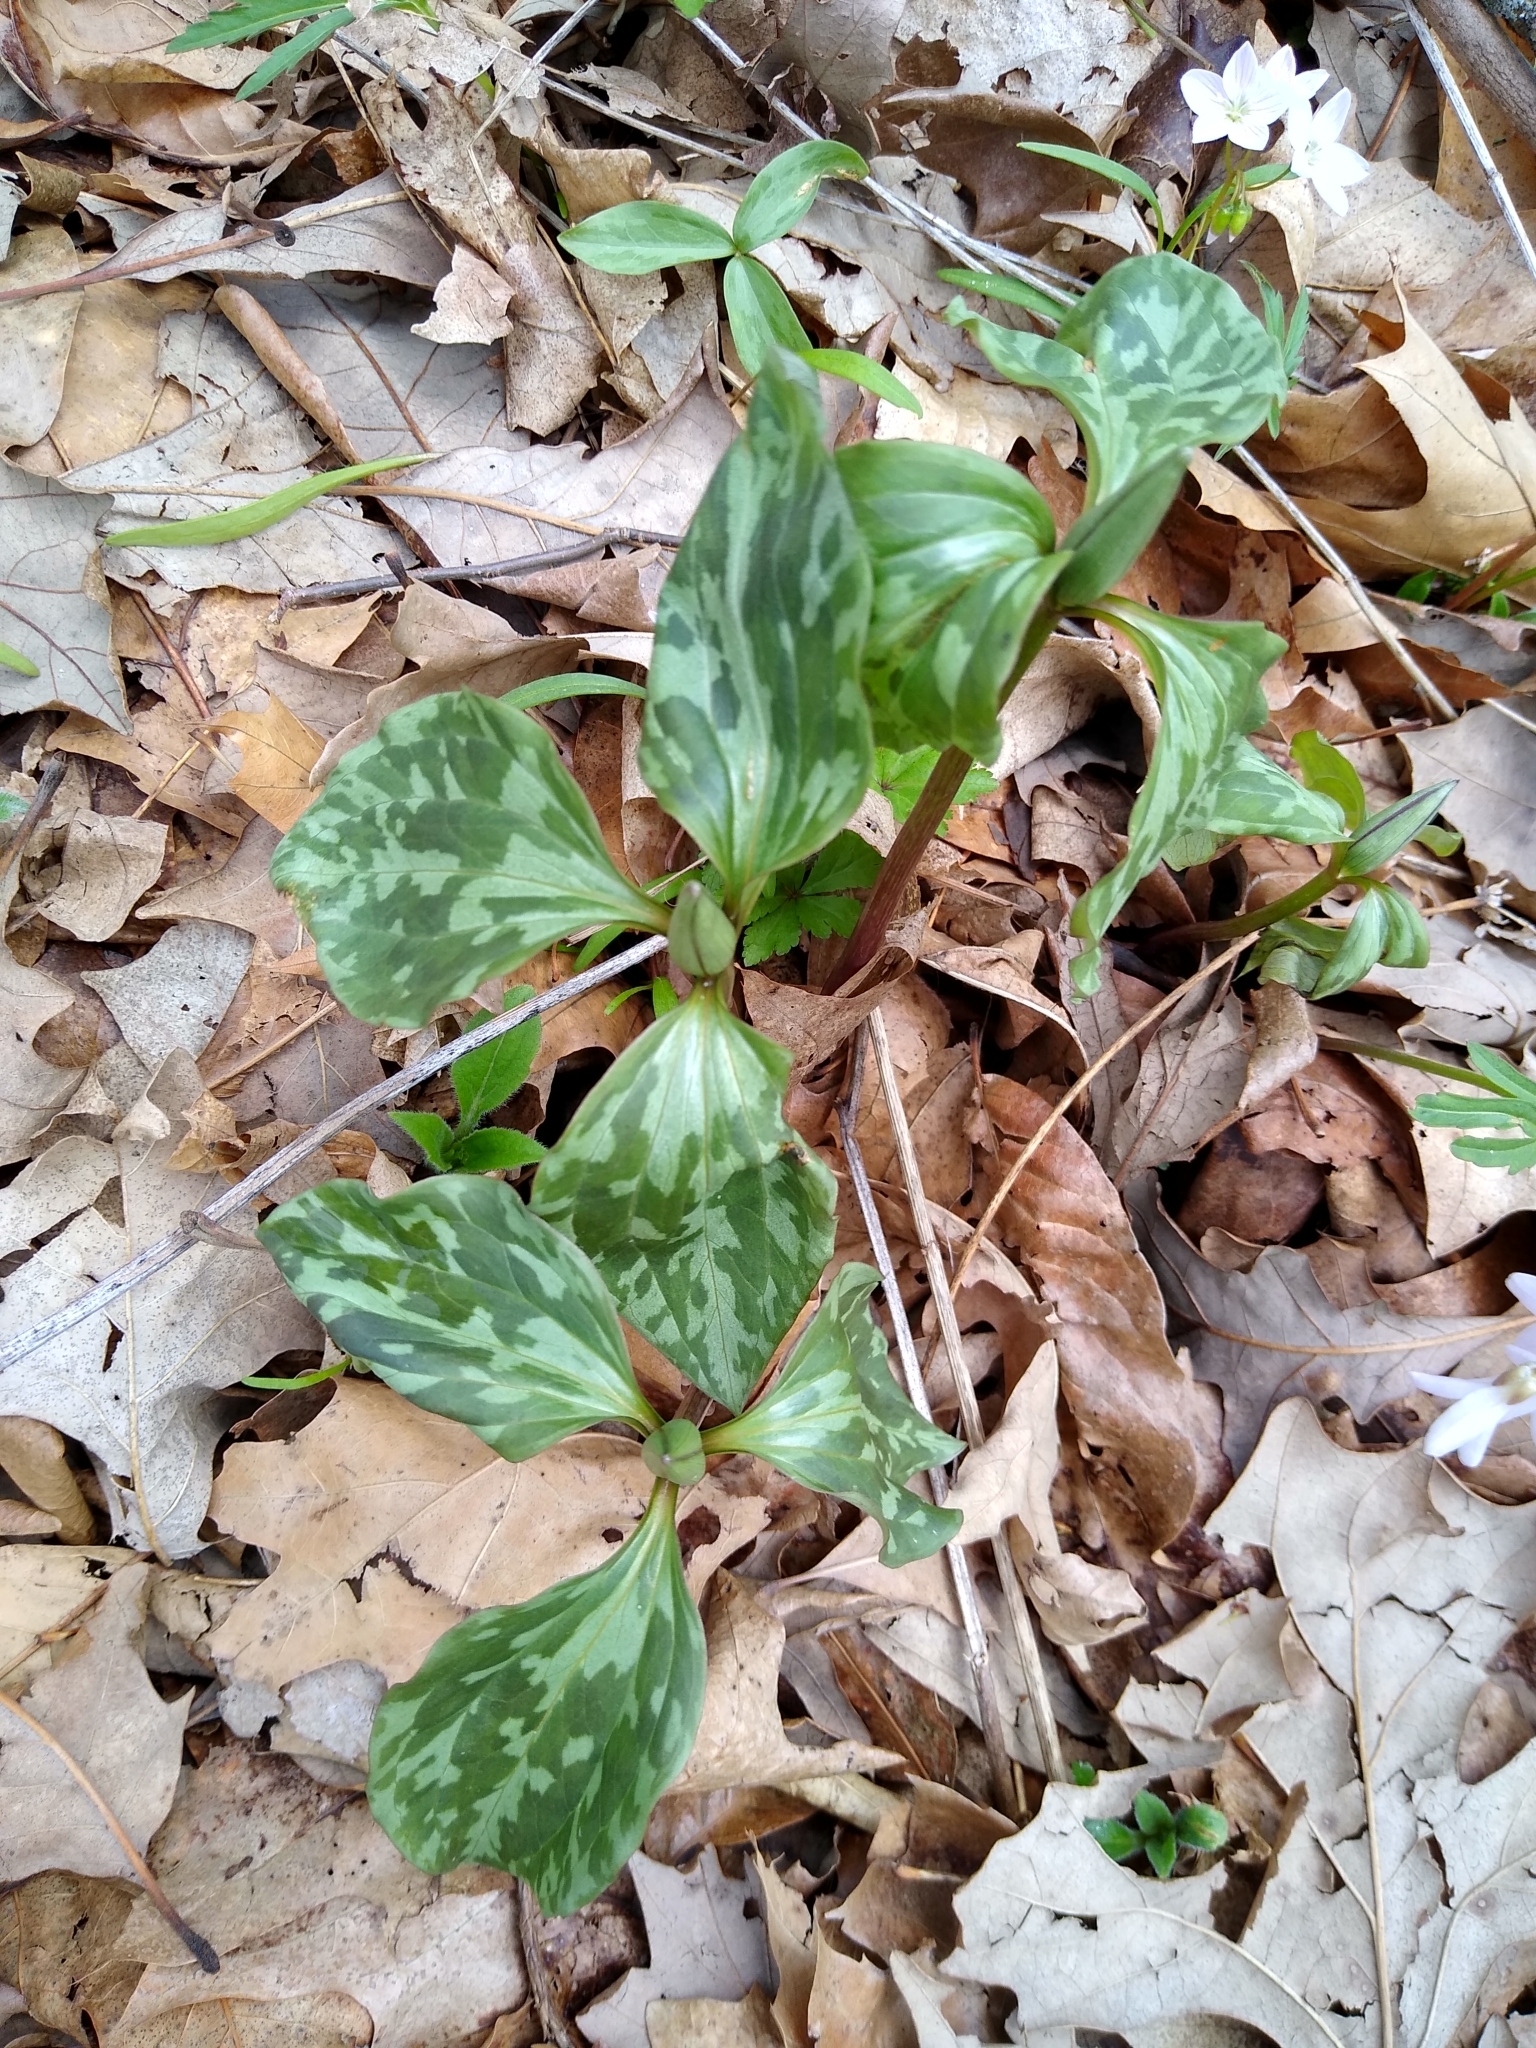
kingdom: Plantae
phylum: Tracheophyta
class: Liliopsida
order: Liliales
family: Melanthiaceae
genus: Trillium
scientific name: Trillium recurvatum
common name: Bloody butcher
